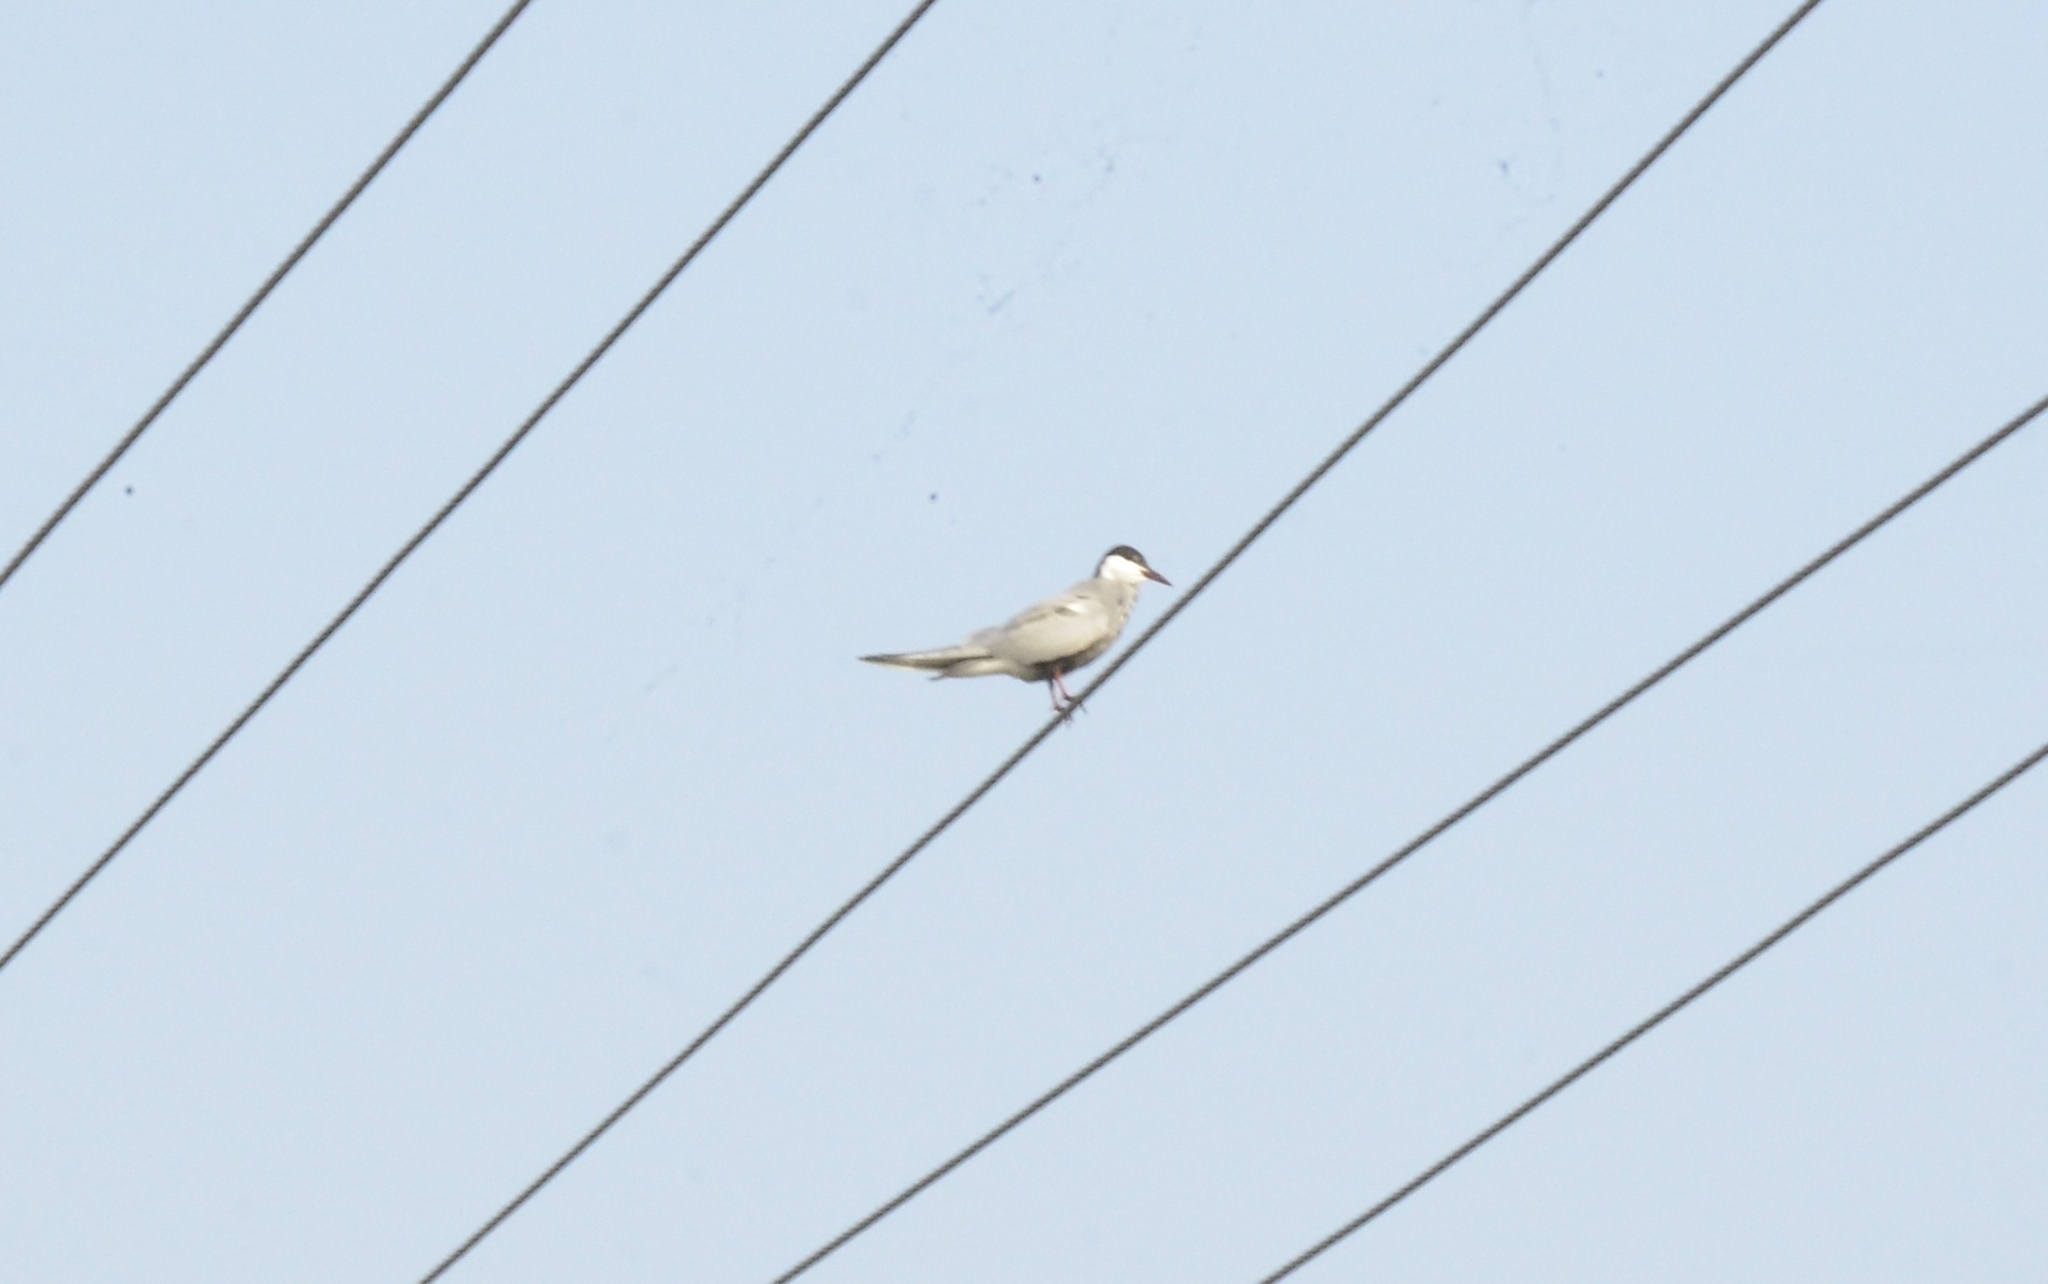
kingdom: Animalia
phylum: Chordata
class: Aves
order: Charadriiformes
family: Laridae
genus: Chlidonias
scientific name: Chlidonias hybrida
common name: Whiskered tern
